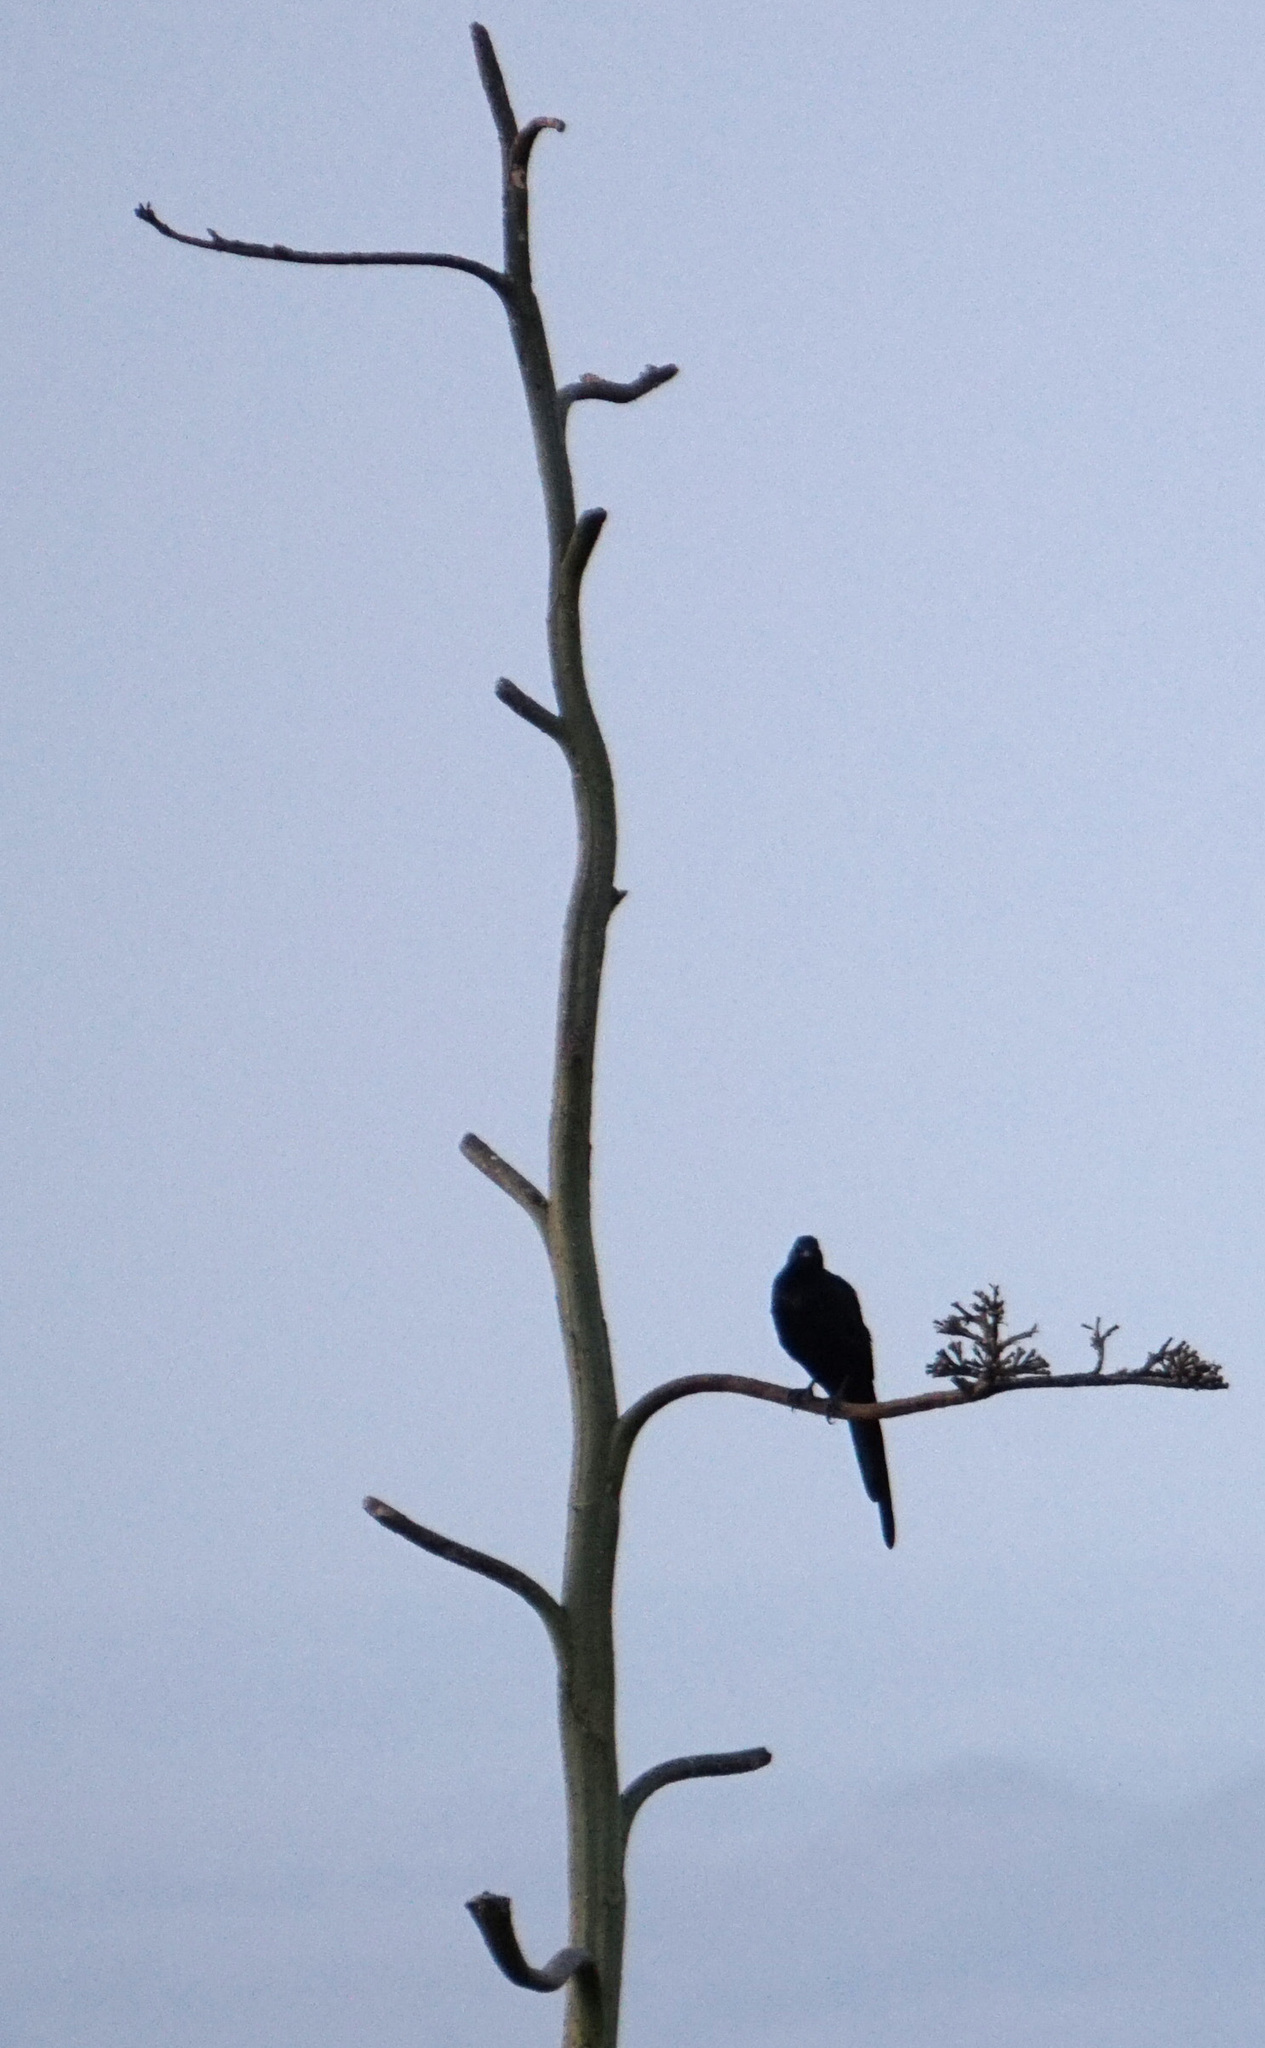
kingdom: Animalia
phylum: Chordata
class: Aves
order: Passeriformes
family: Sturnidae
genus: Onychognathus
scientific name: Onychognathus tenuirostris
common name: Slender-billed starling
